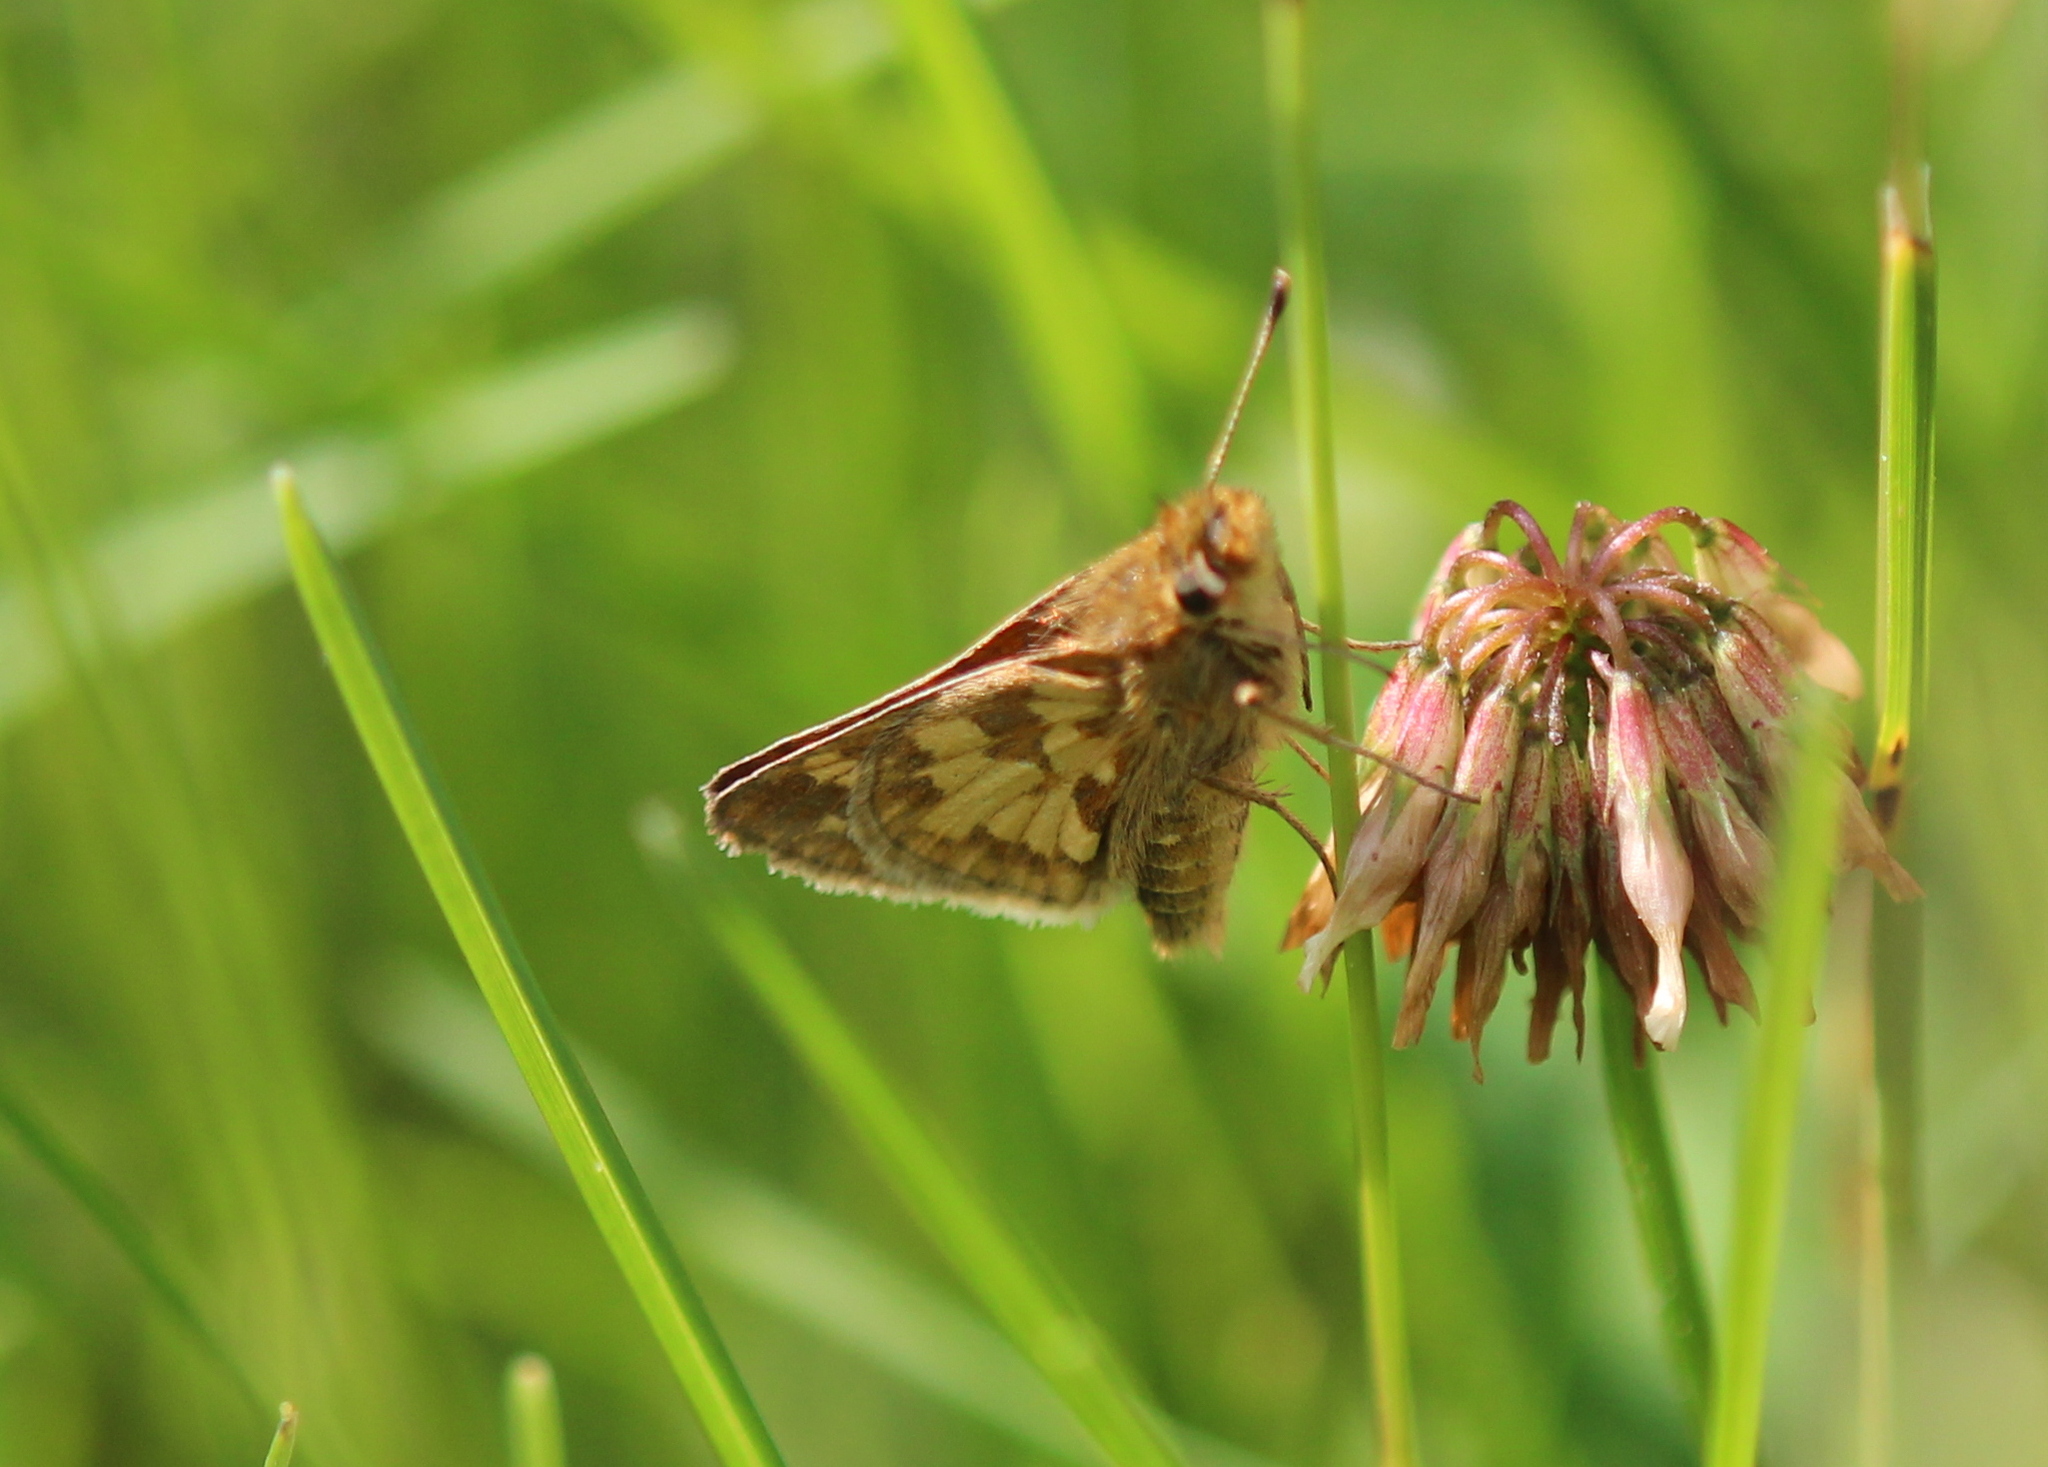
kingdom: Animalia
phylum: Arthropoda
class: Insecta
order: Lepidoptera
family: Hesperiidae
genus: Polites
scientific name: Polites coras
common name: Peck's skipper
